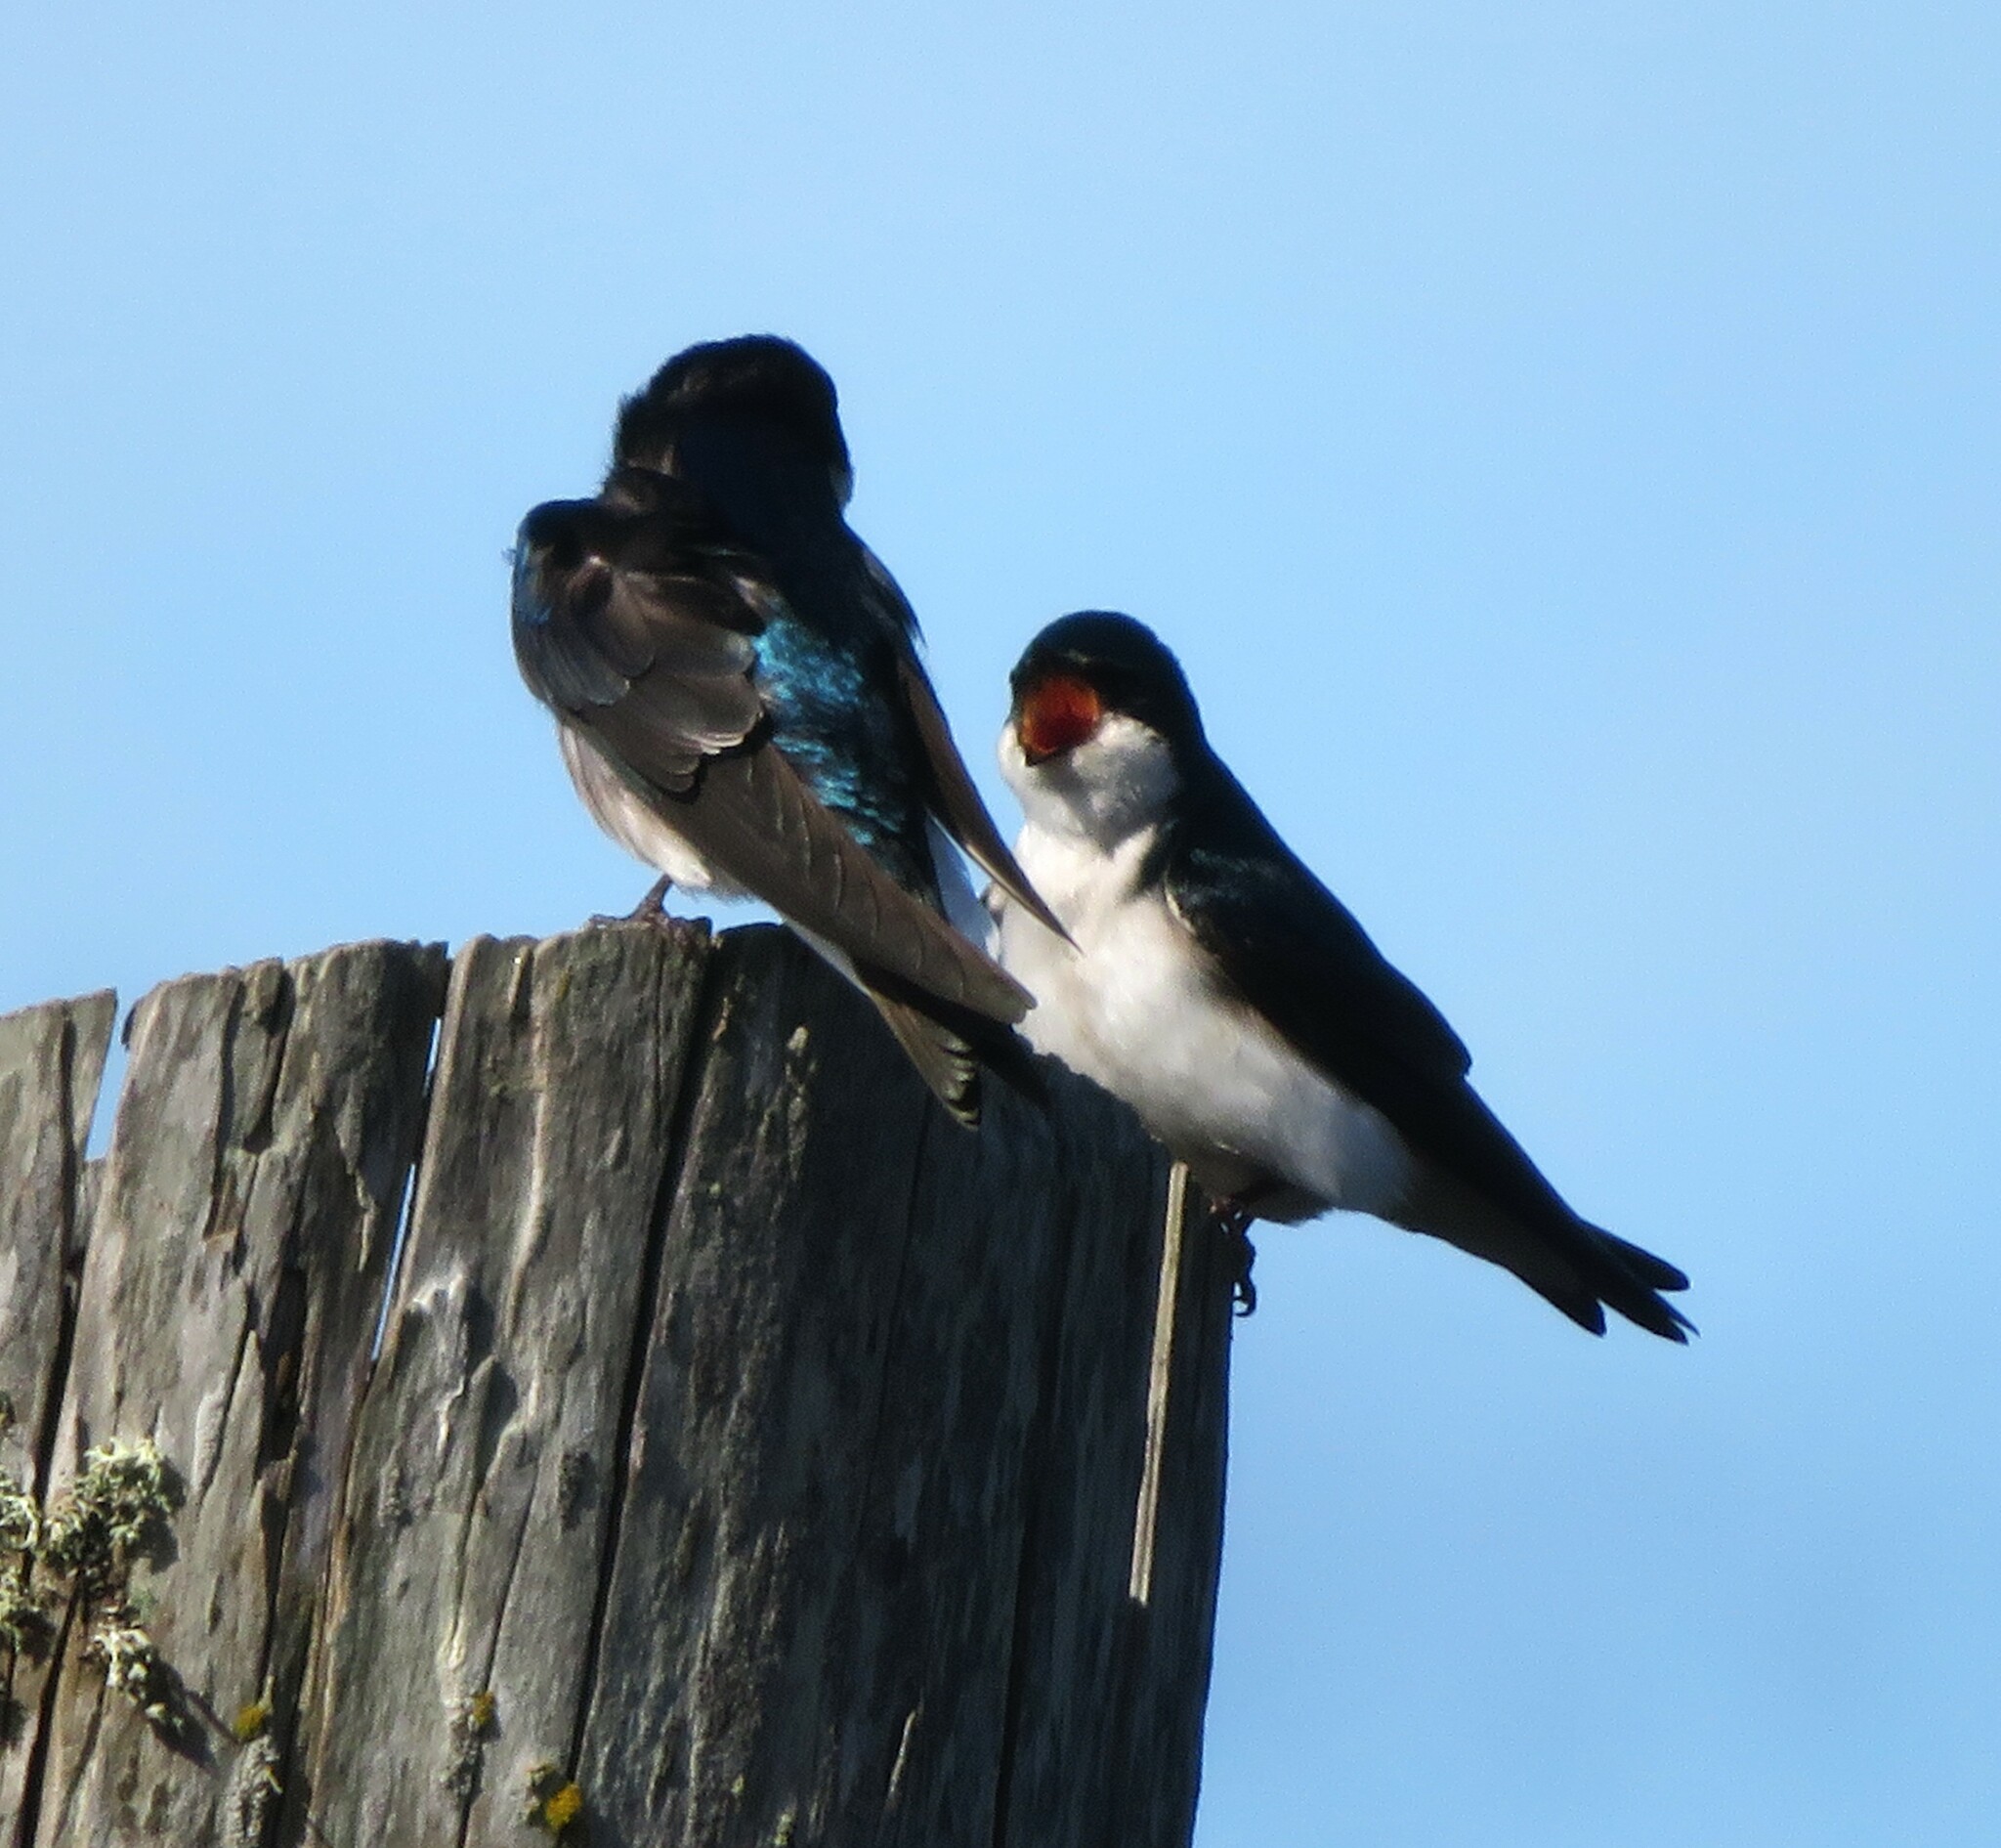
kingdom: Animalia
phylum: Chordata
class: Aves
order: Passeriformes
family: Hirundinidae
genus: Tachycineta
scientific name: Tachycineta bicolor
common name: Tree swallow
